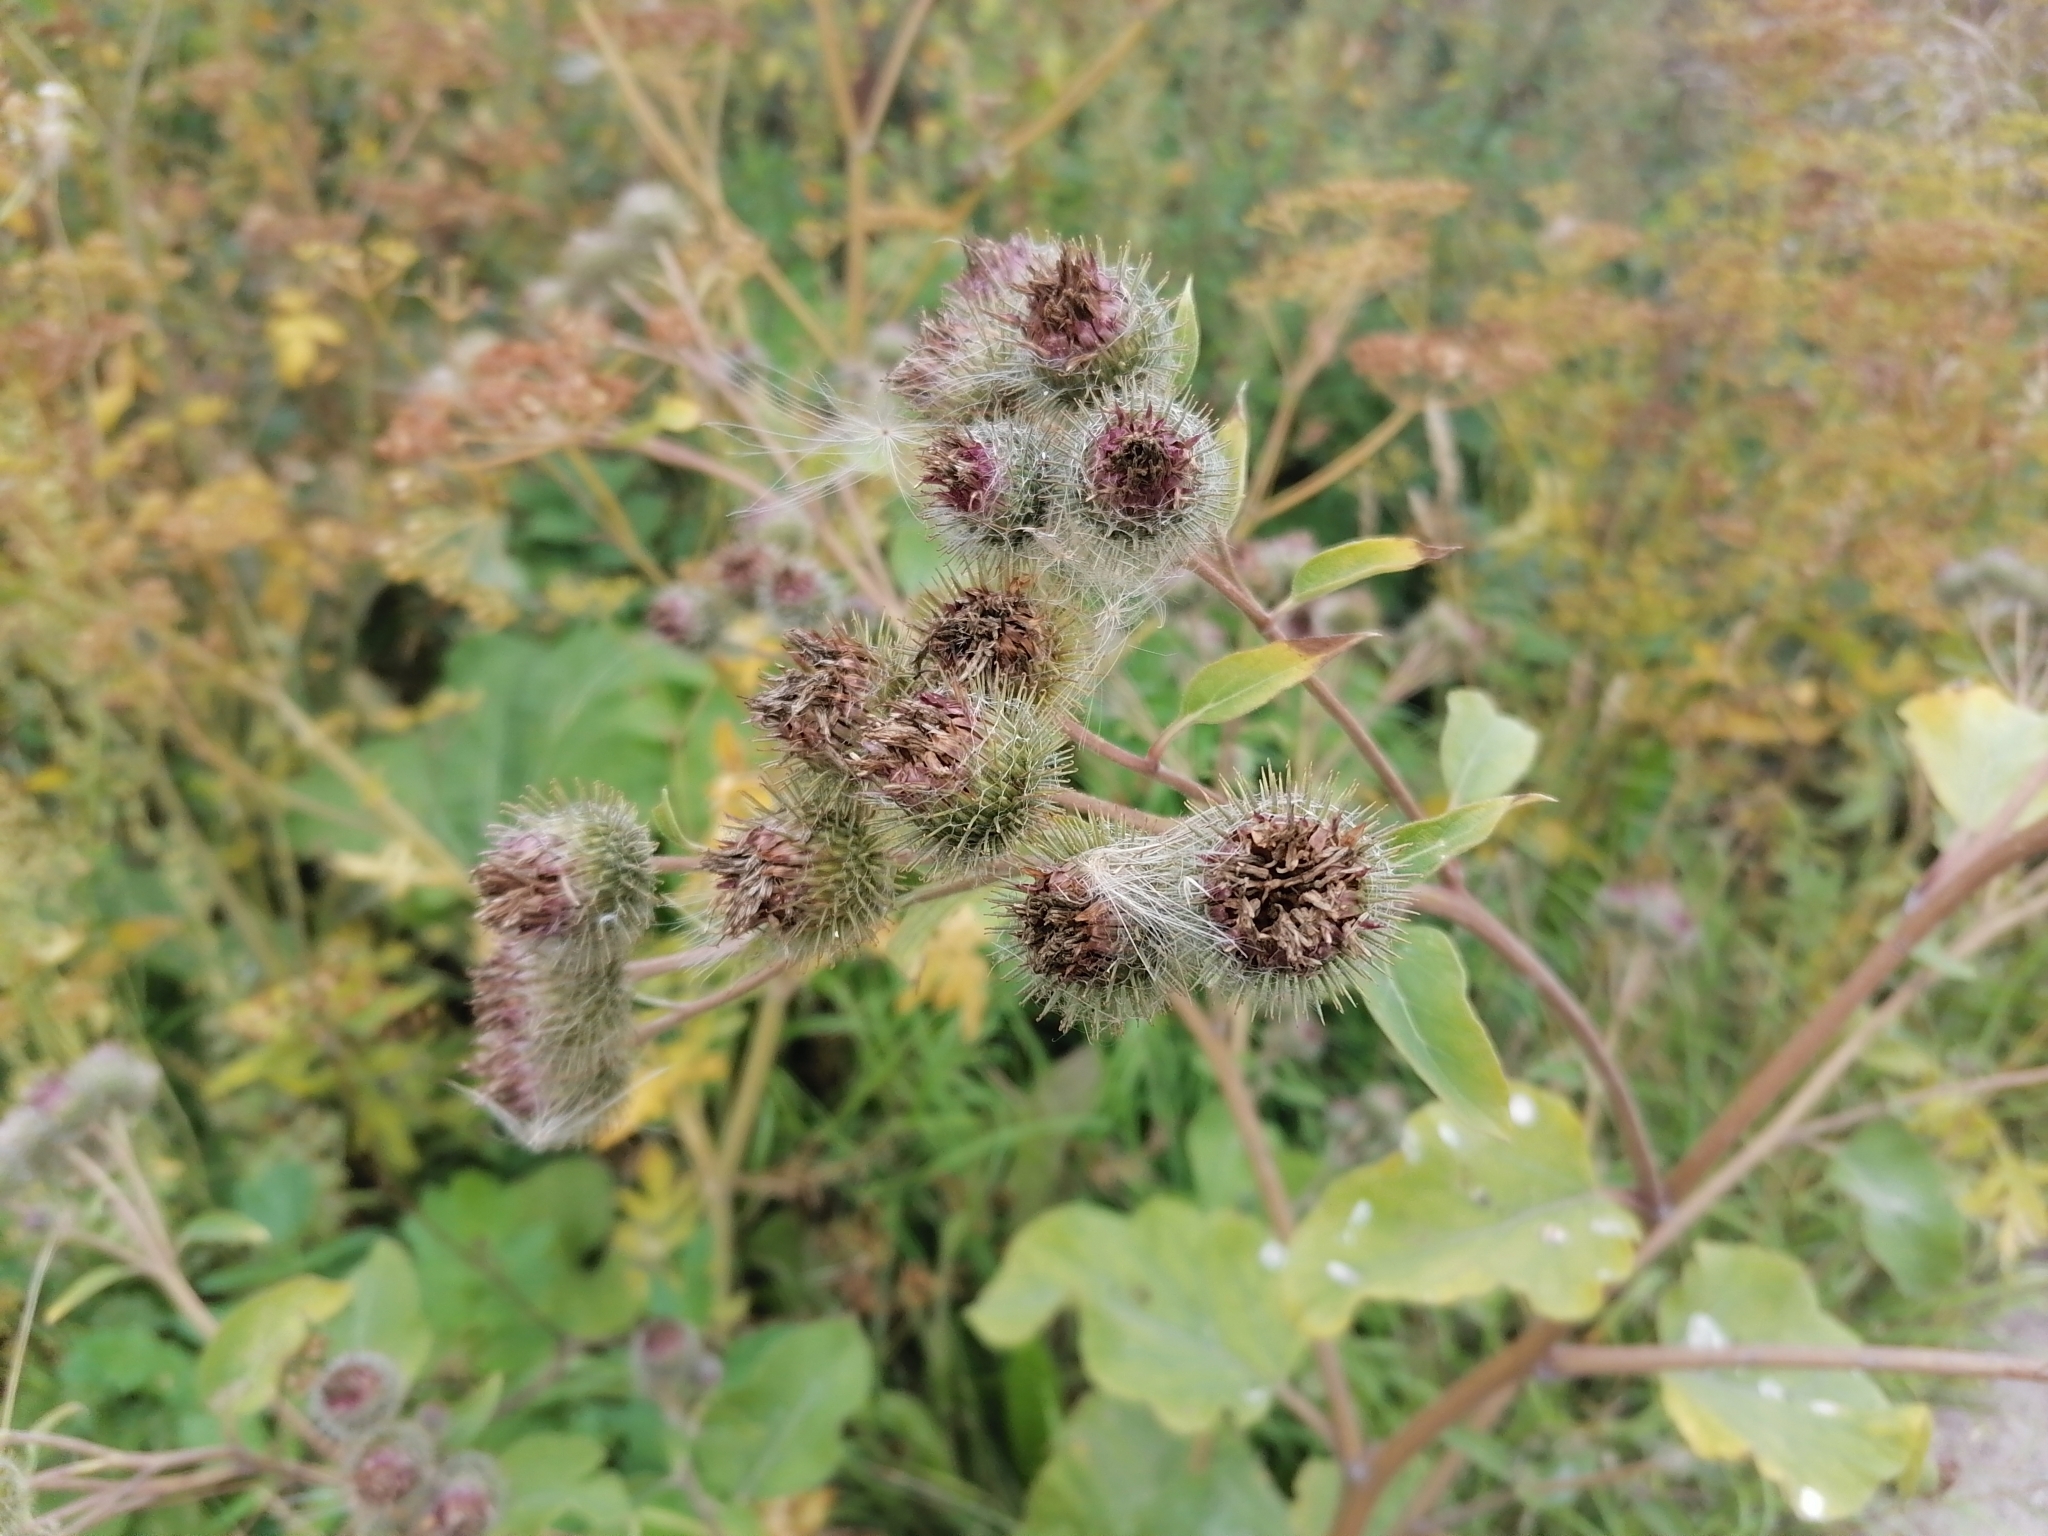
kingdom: Plantae
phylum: Tracheophyta
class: Magnoliopsida
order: Asterales
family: Asteraceae
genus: Arctium
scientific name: Arctium tomentosum
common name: Woolly burdock
